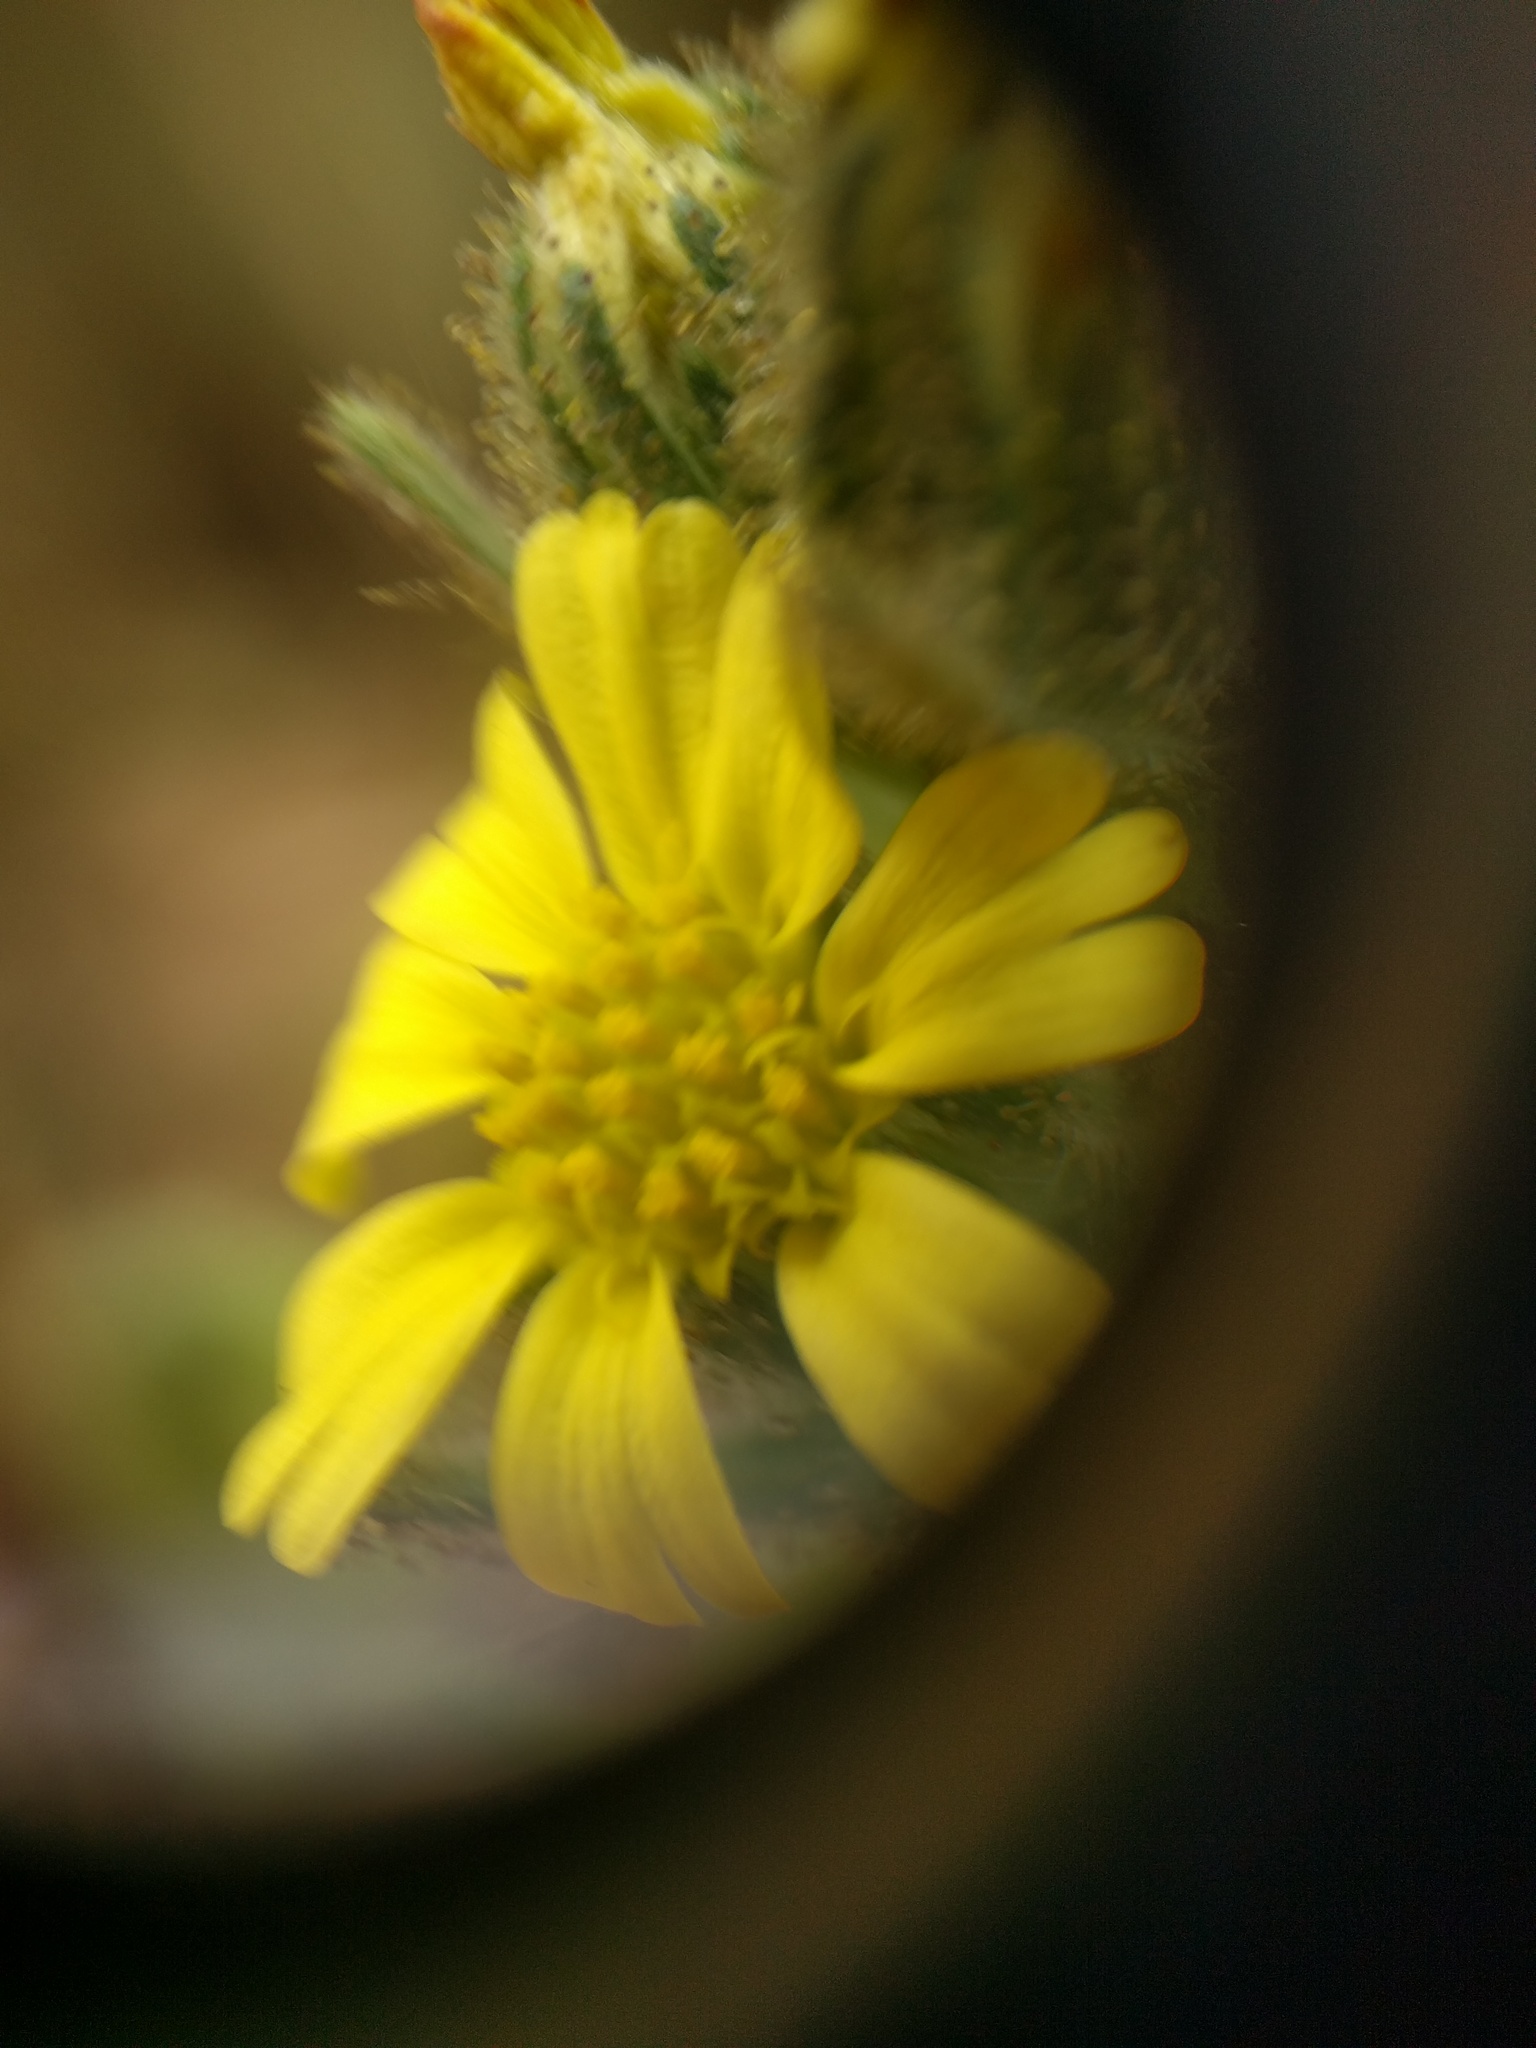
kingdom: Plantae
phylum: Tracheophyta
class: Magnoliopsida
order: Asterales
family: Asteraceae
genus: Madia
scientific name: Madia sativa
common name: Coast tarweed
